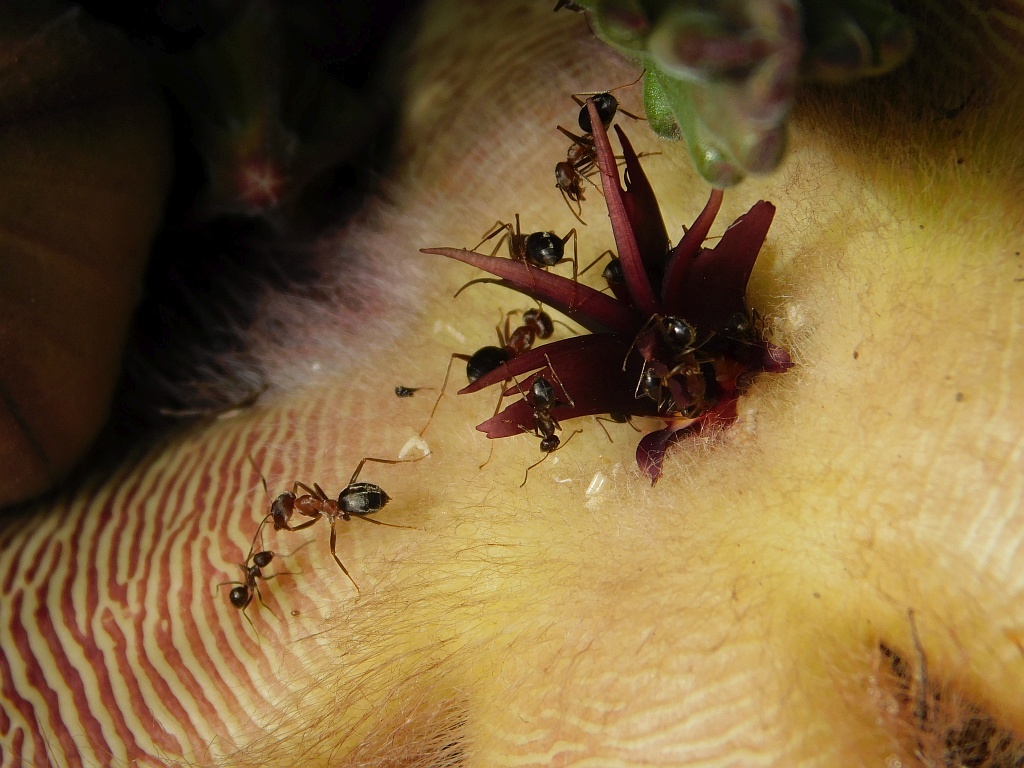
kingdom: Animalia
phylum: Arthropoda
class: Insecta
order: Hymenoptera
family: Formicidae
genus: Anoplolepis
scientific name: Anoplolepis steingroeveri
